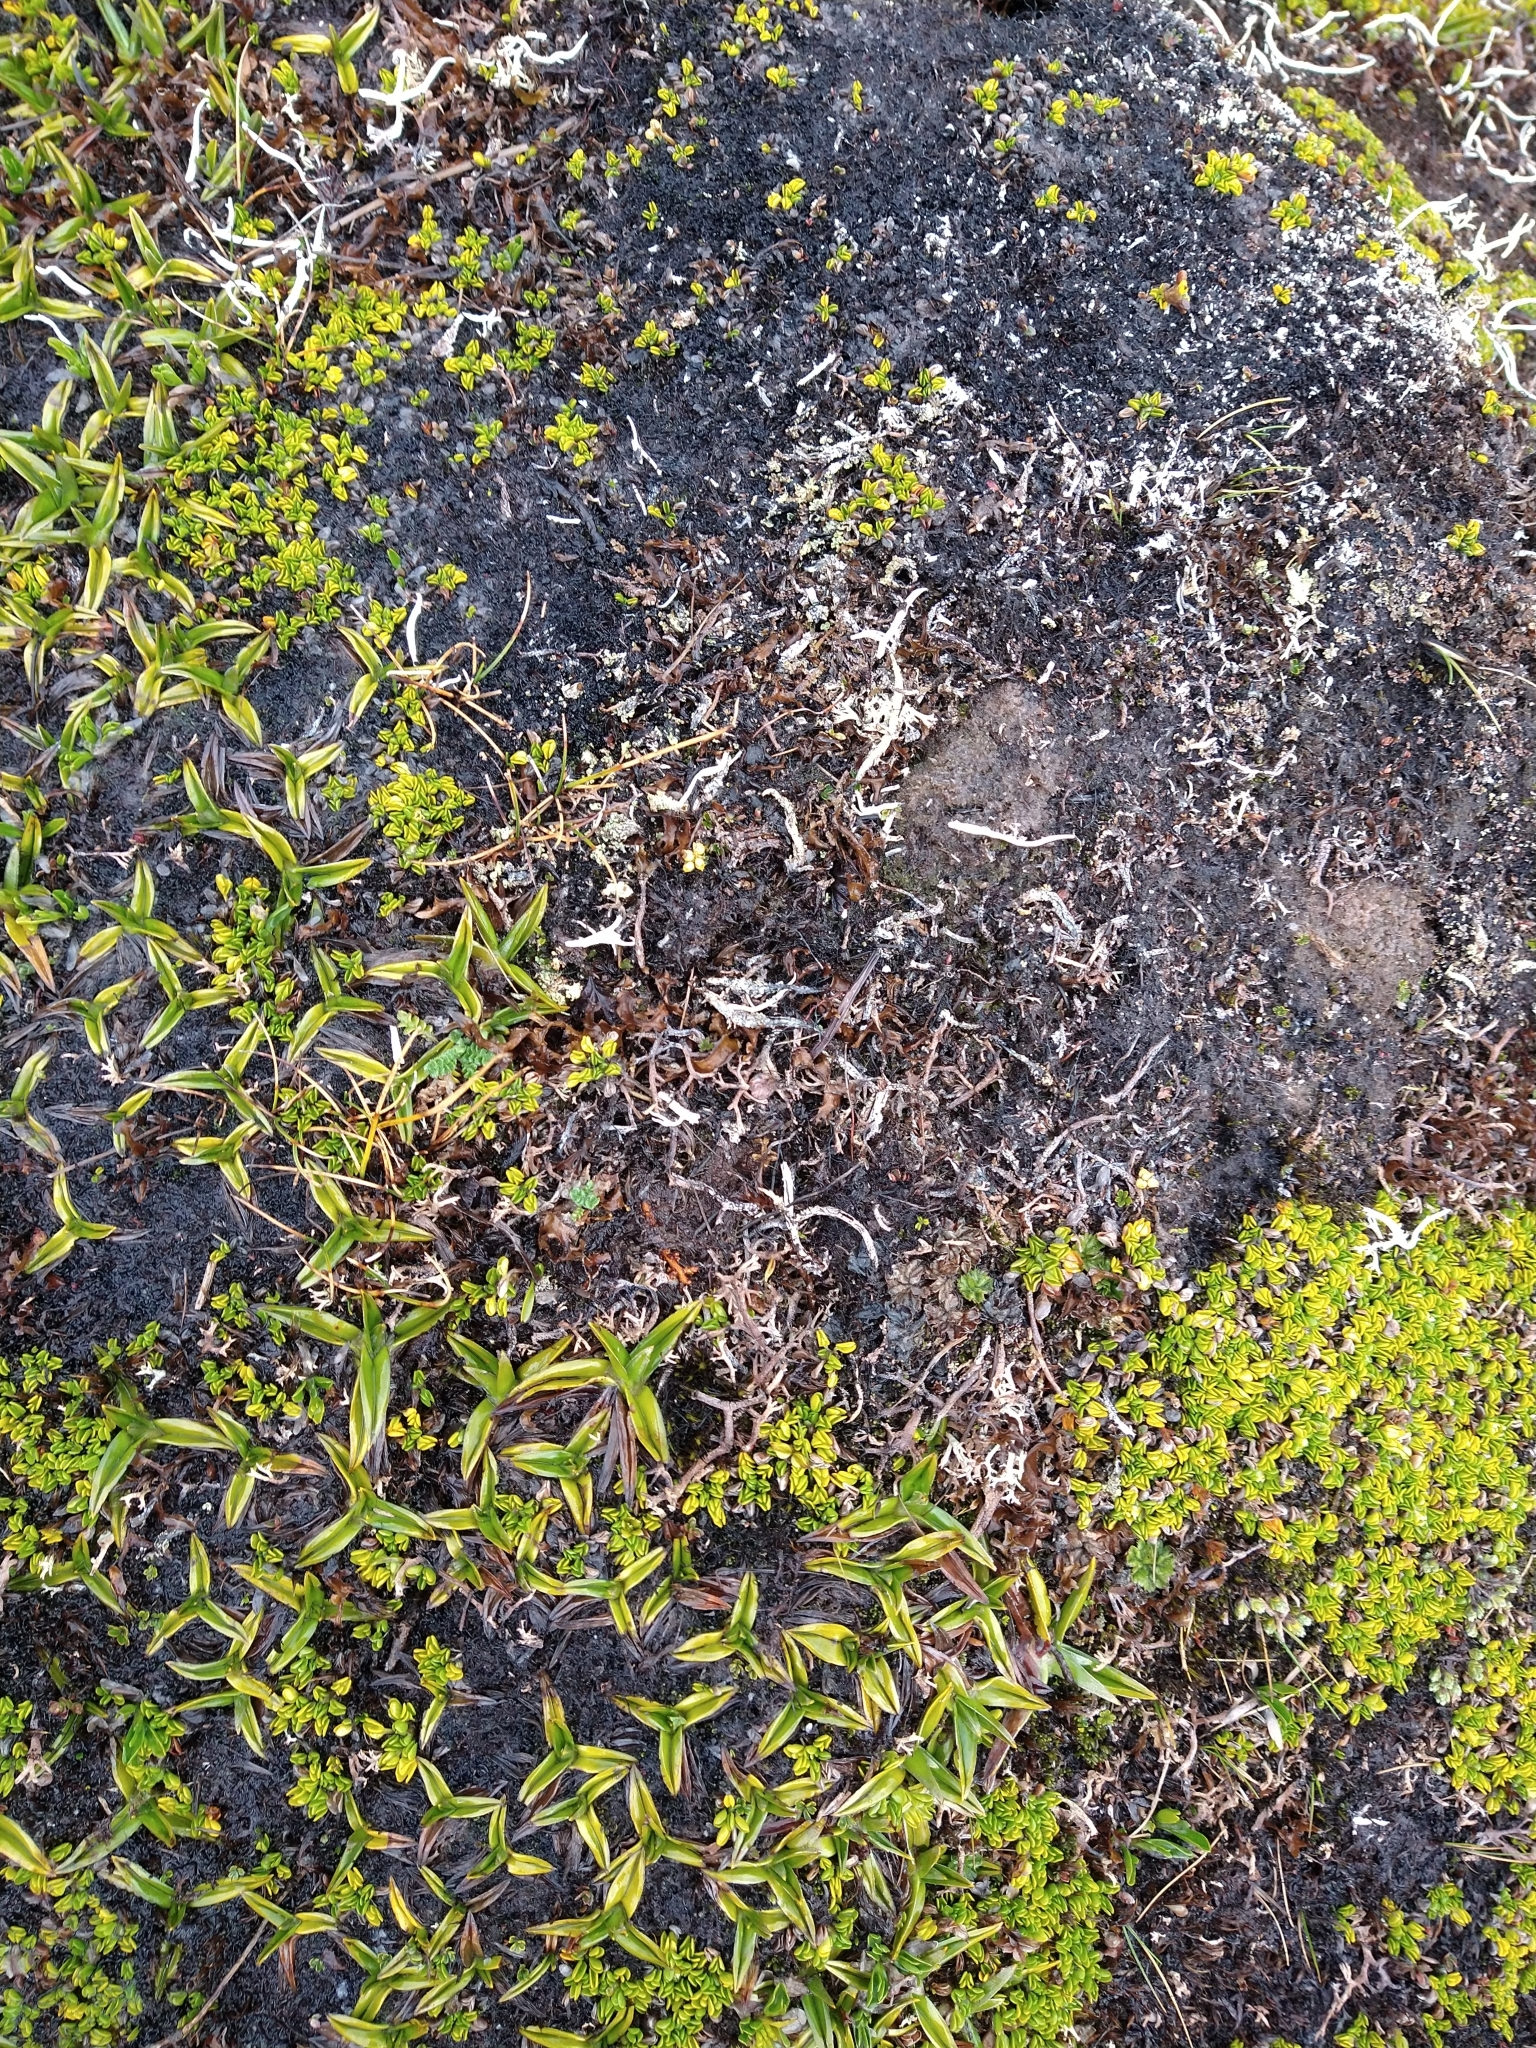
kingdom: Plantae
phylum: Tracheophyta
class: Liliopsida
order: Asparagales
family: Asteliaceae
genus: Astelia
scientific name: Astelia pumila
